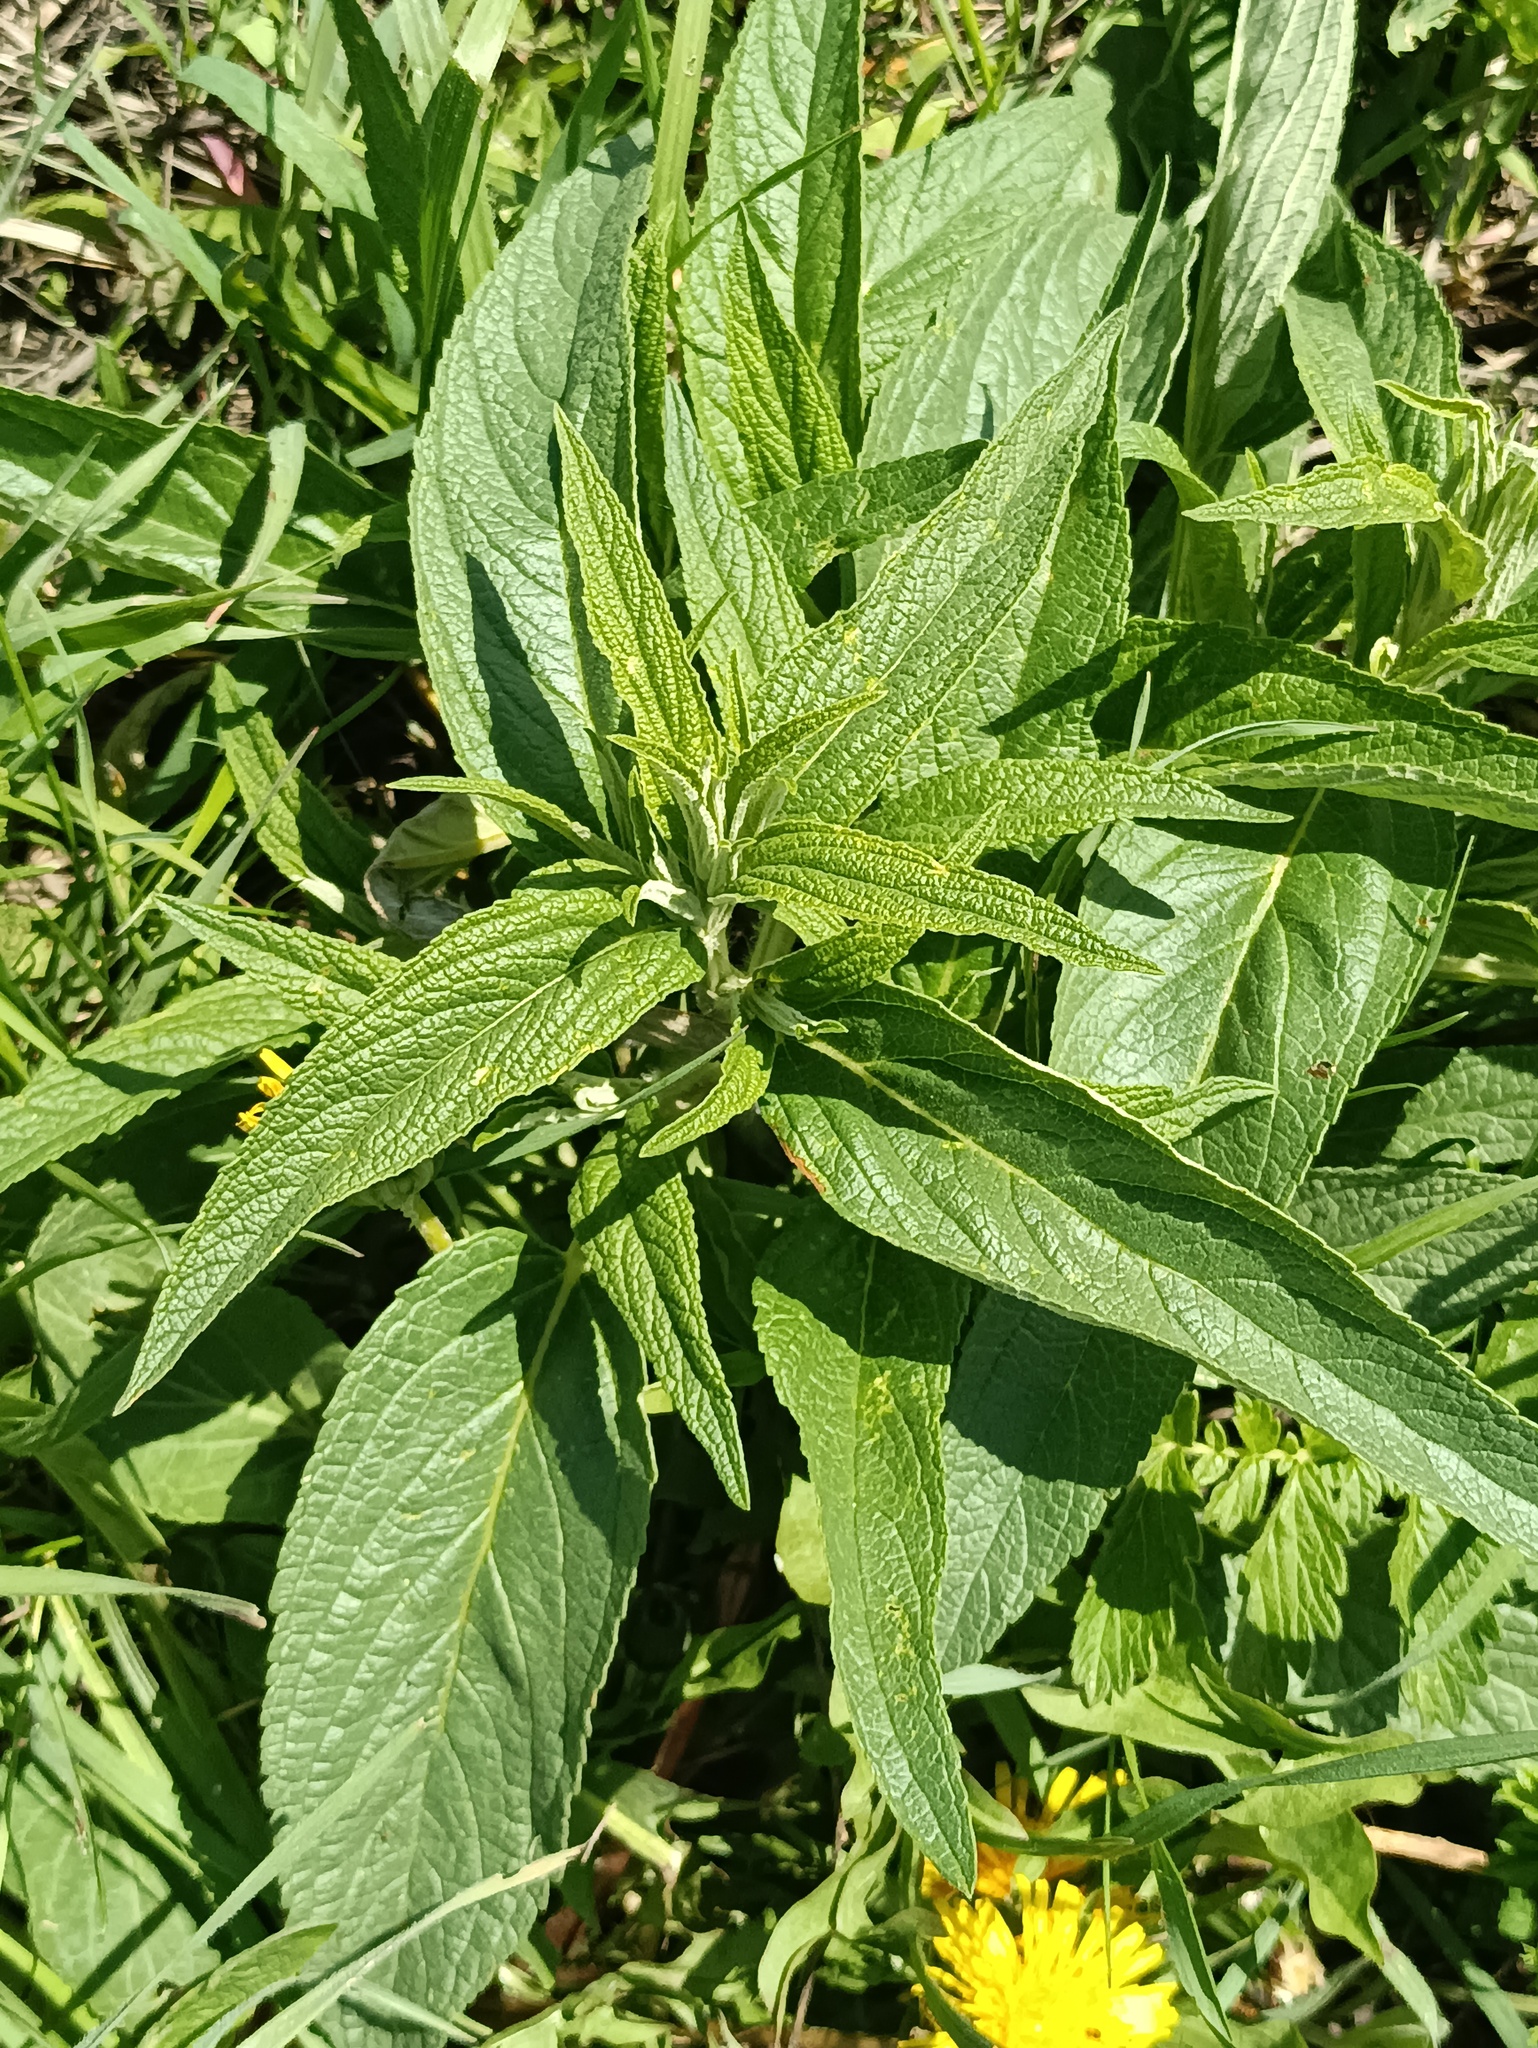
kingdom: Plantae
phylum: Tracheophyta
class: Magnoliopsida
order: Lamiales
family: Lamiaceae
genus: Phlomis
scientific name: Phlomis herba-venti
